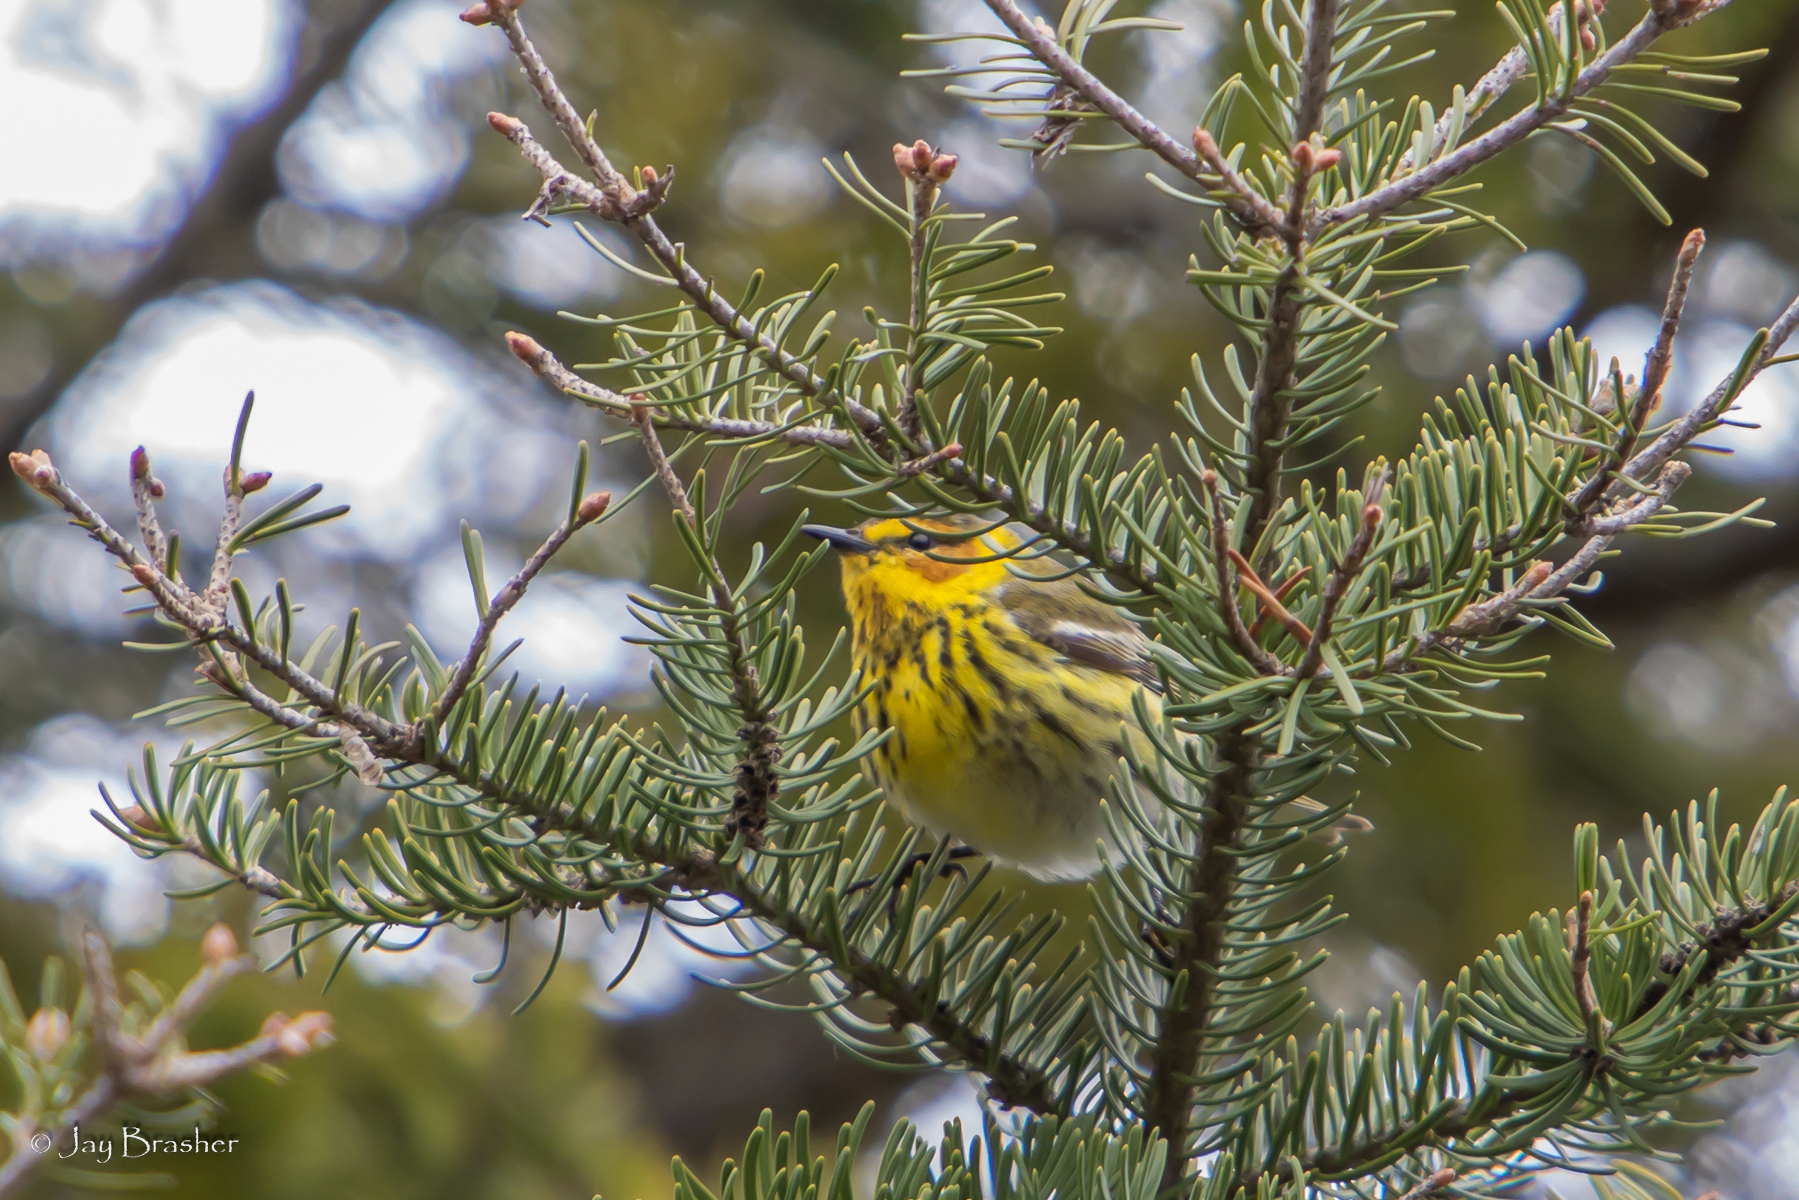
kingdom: Animalia
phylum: Chordata
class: Aves
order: Passeriformes
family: Parulidae
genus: Setophaga
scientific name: Setophaga tigrina
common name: Cape may warbler
